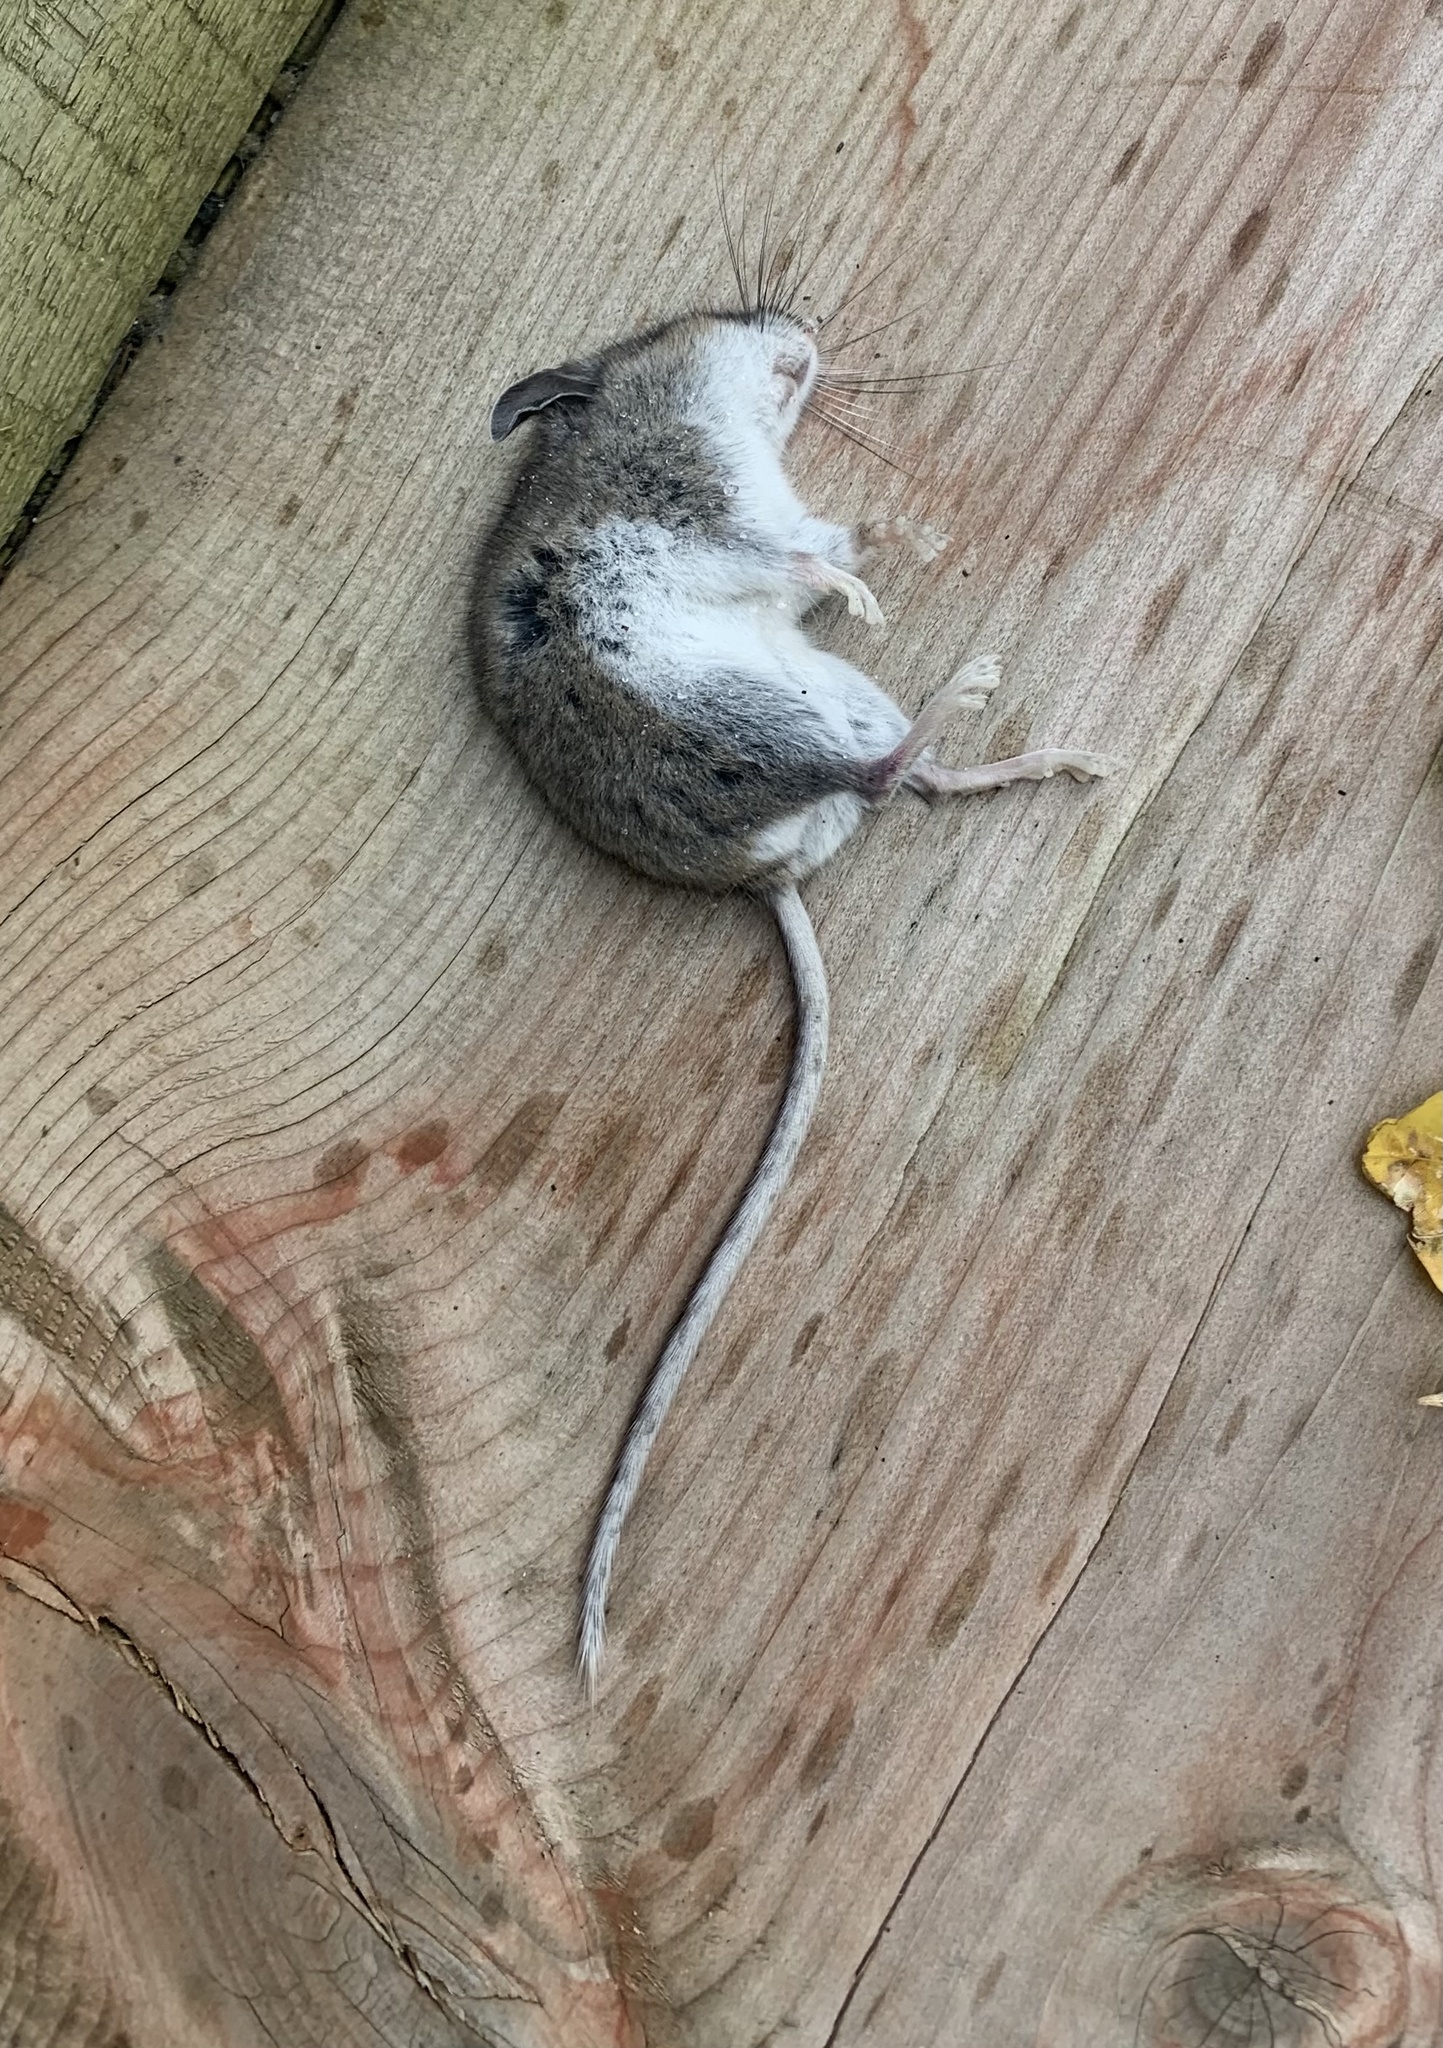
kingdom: Animalia
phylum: Chordata
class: Mammalia
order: Rodentia
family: Cricetidae
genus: Peromyscus
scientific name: Peromyscus maniculatus
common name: Deer mouse
